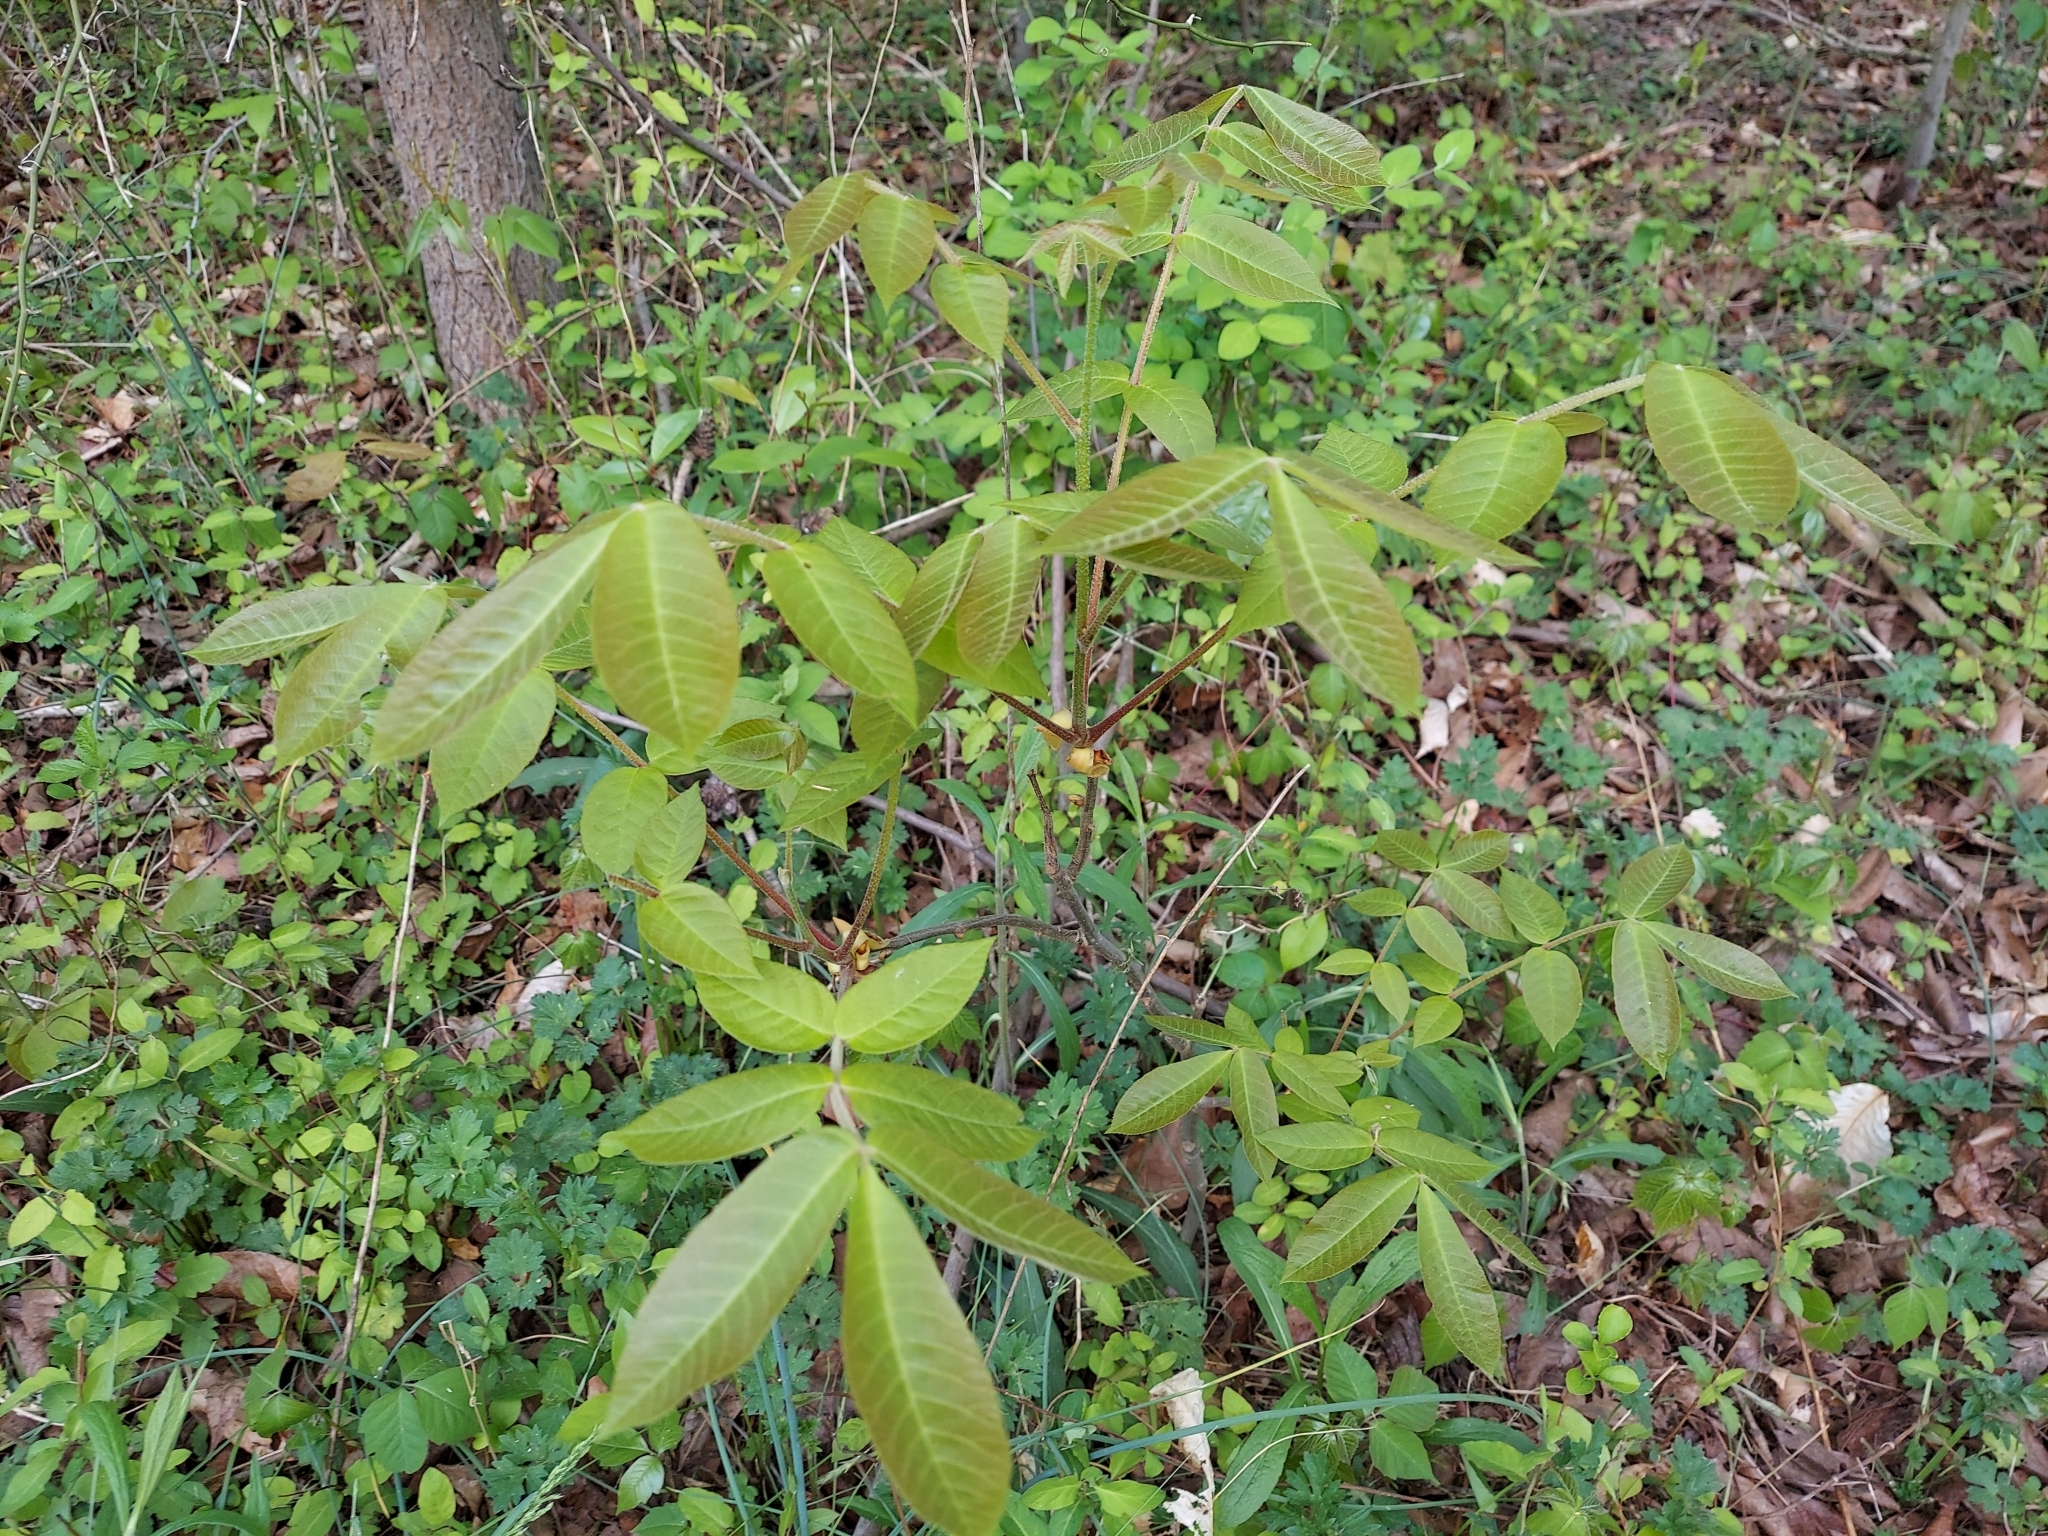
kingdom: Plantae
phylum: Tracheophyta
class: Magnoliopsida
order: Fagales
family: Juglandaceae
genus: Carya
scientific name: Carya alba
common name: Mockernut hickory
